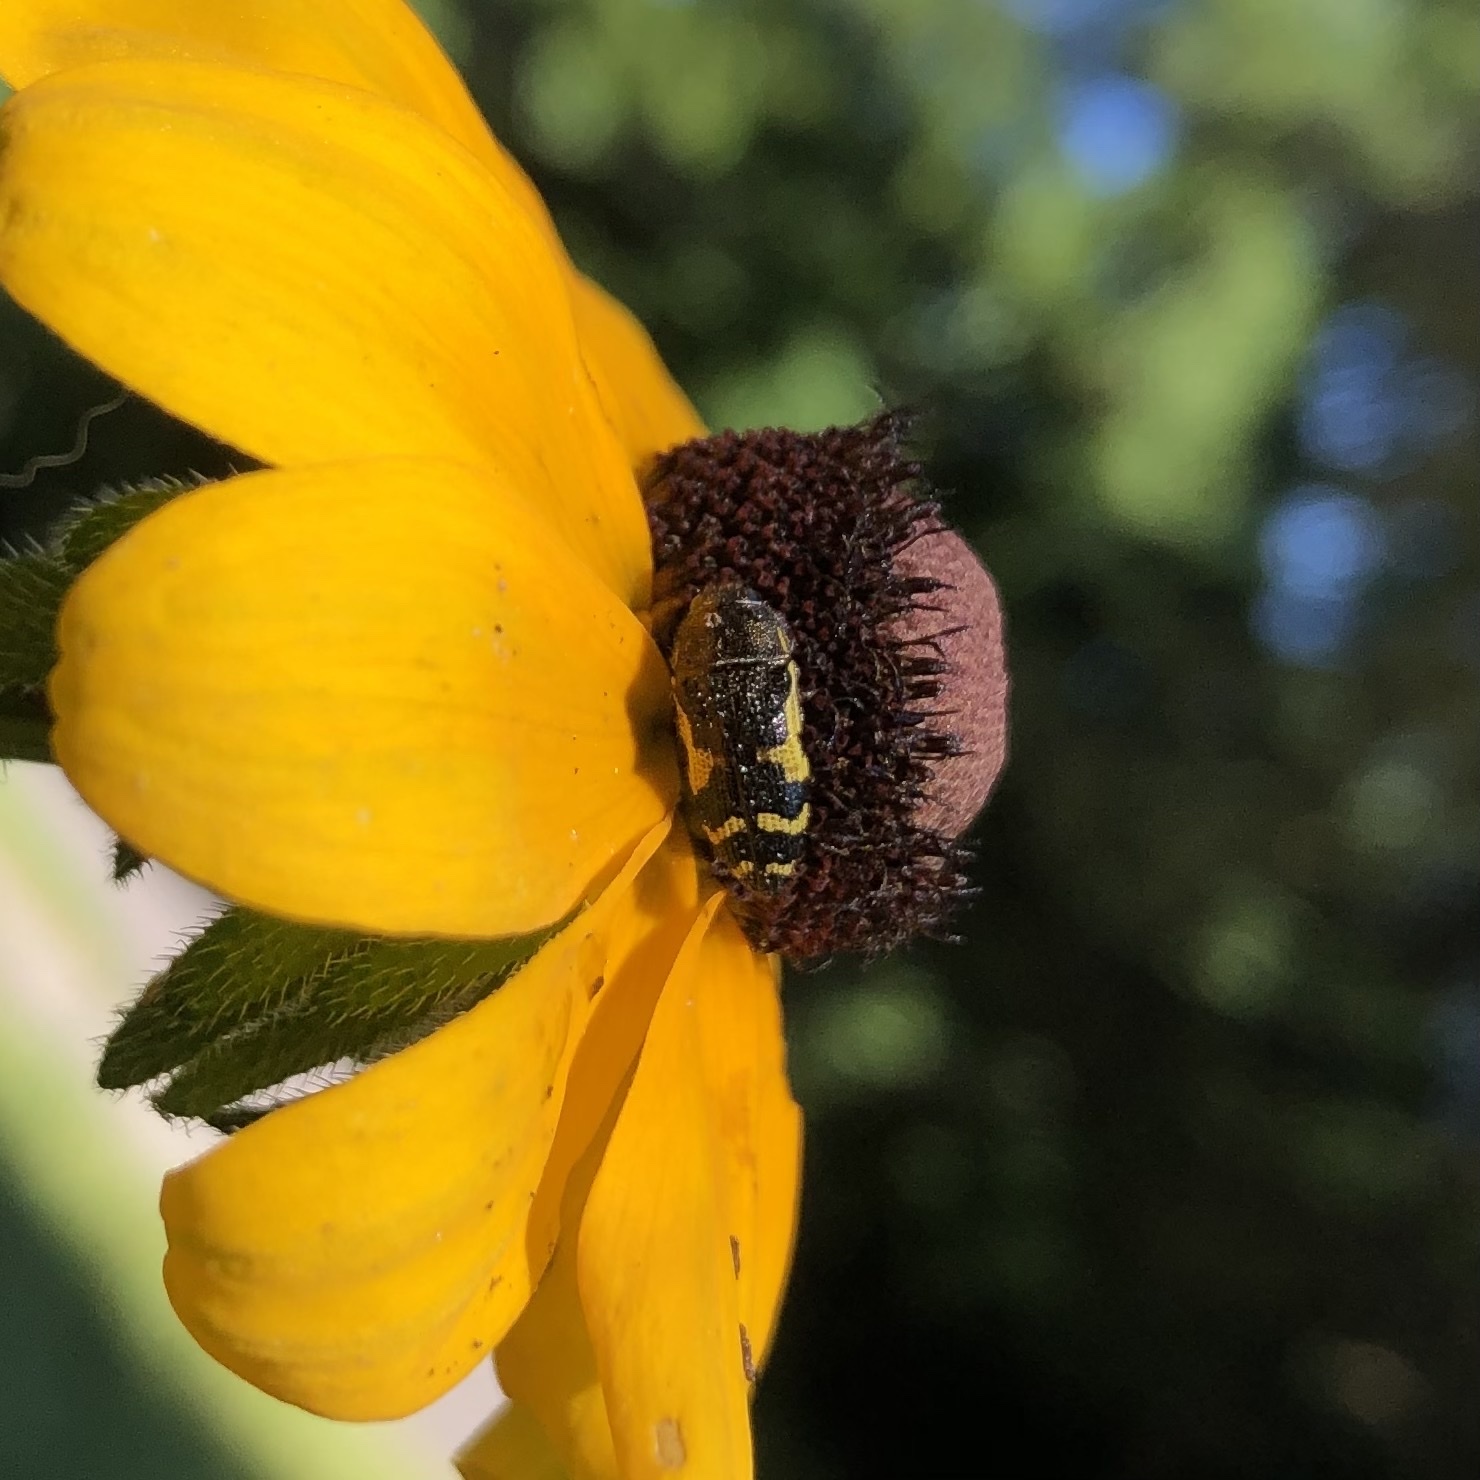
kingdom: Animalia
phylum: Arthropoda
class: Insecta
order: Coleoptera
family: Buprestidae
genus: Acmaeodera
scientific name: Acmaeodera pulchella
